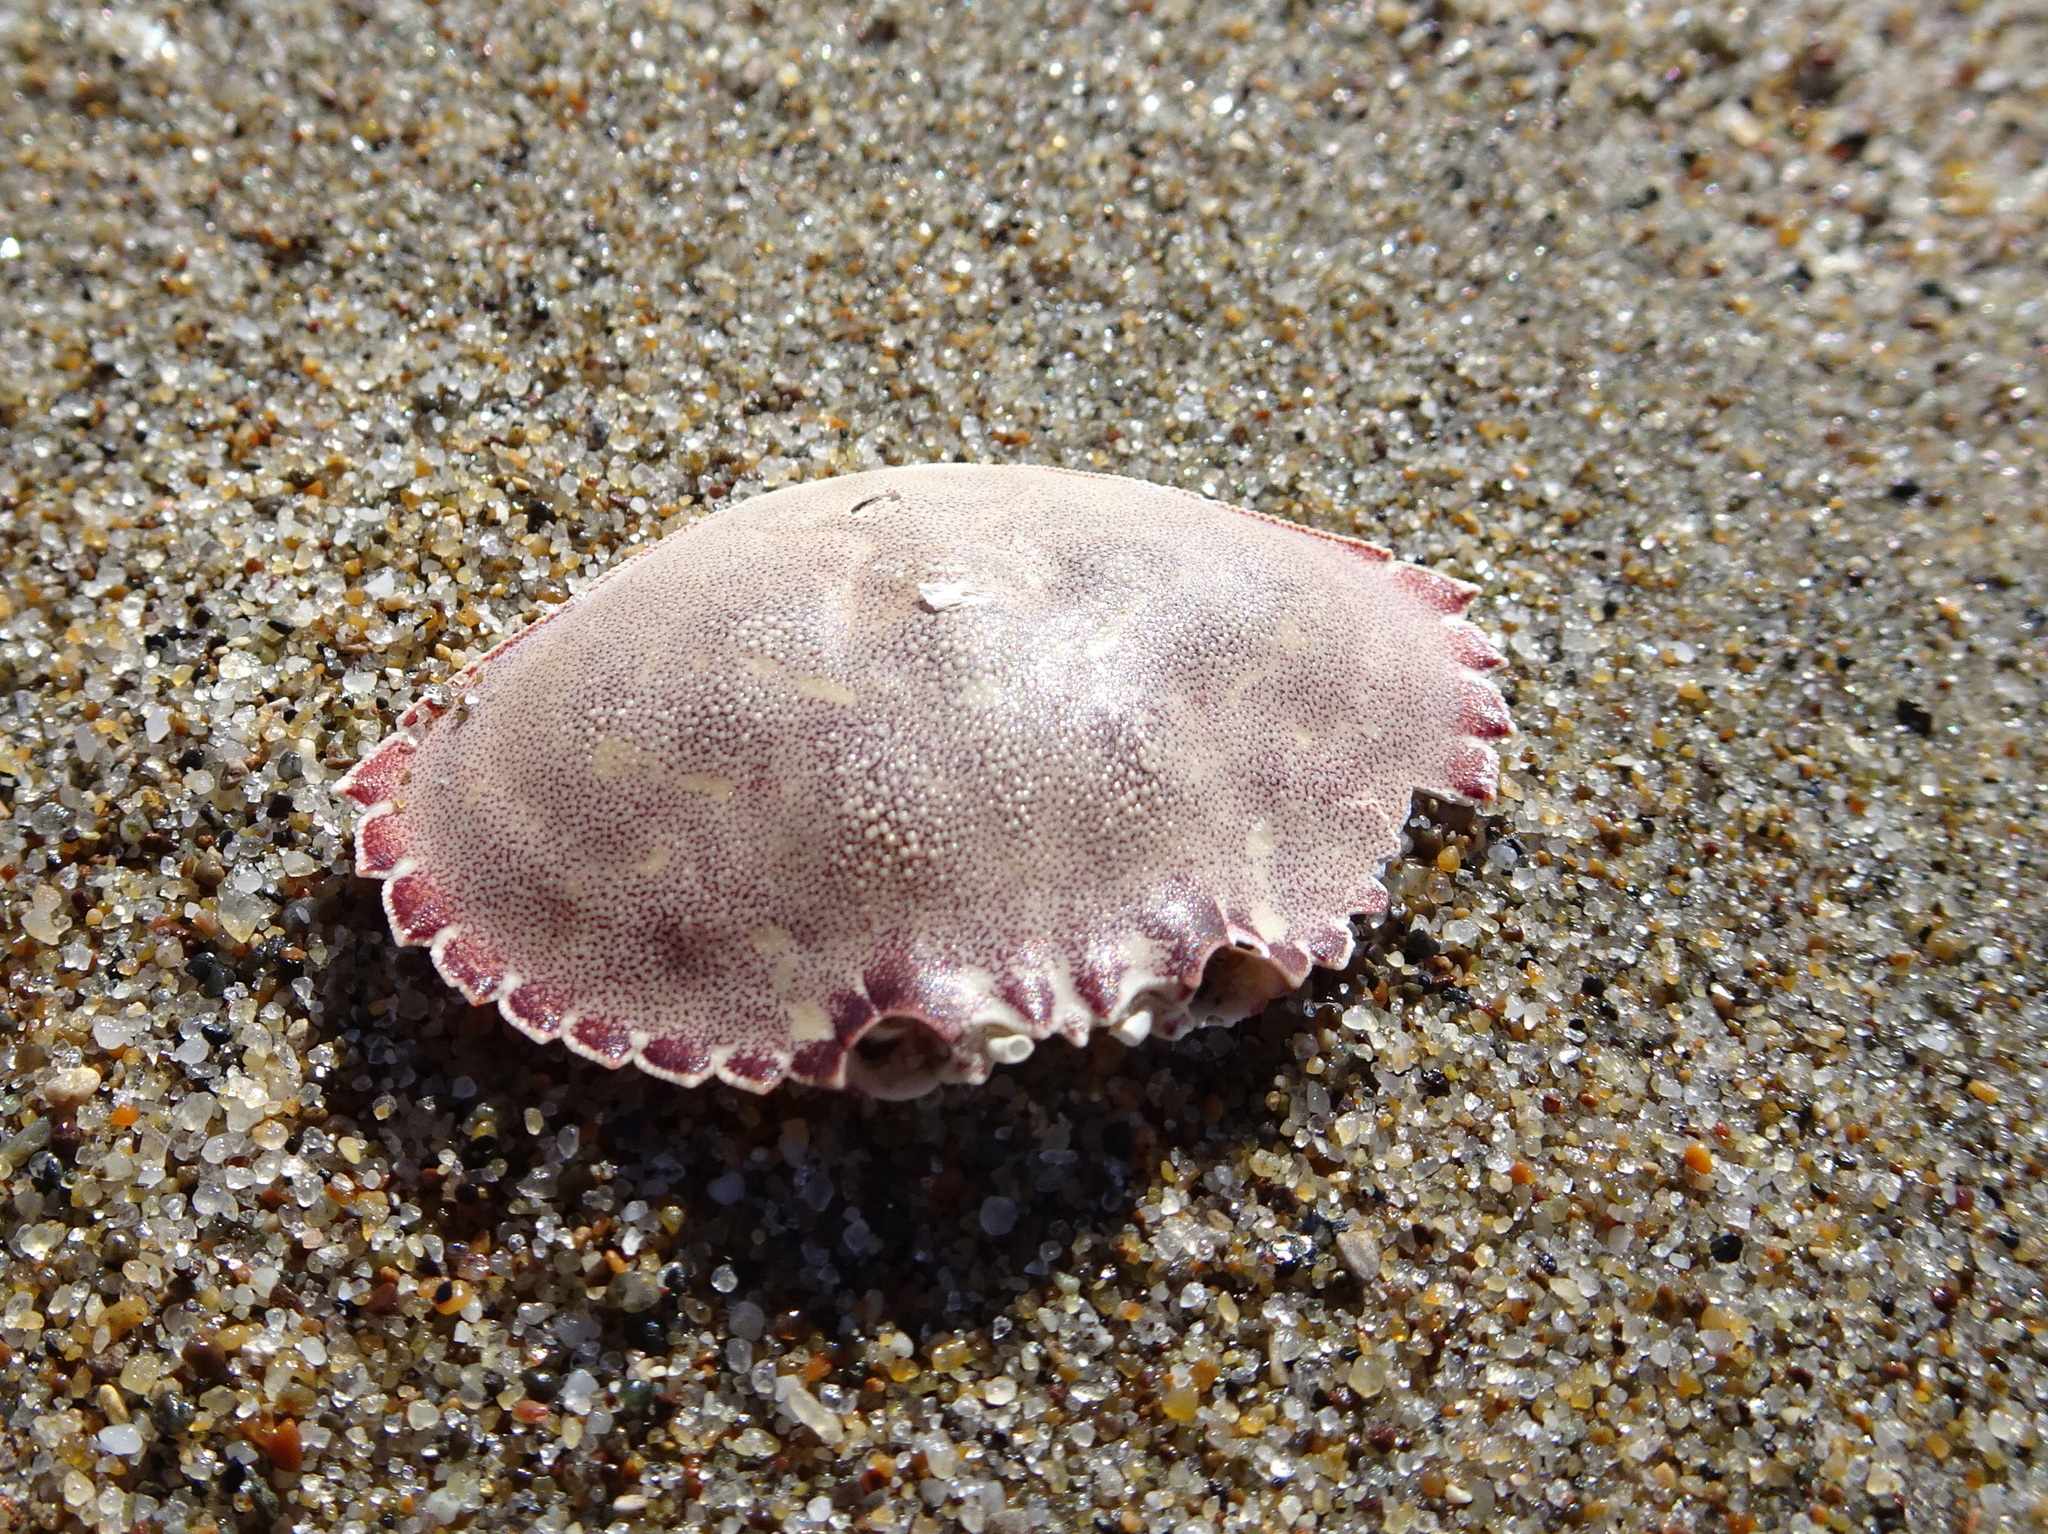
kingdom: Animalia
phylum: Arthropoda
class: Malacostraca
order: Decapoda
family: Cancridae
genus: Metacarcinus
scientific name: Metacarcinus gracilis
